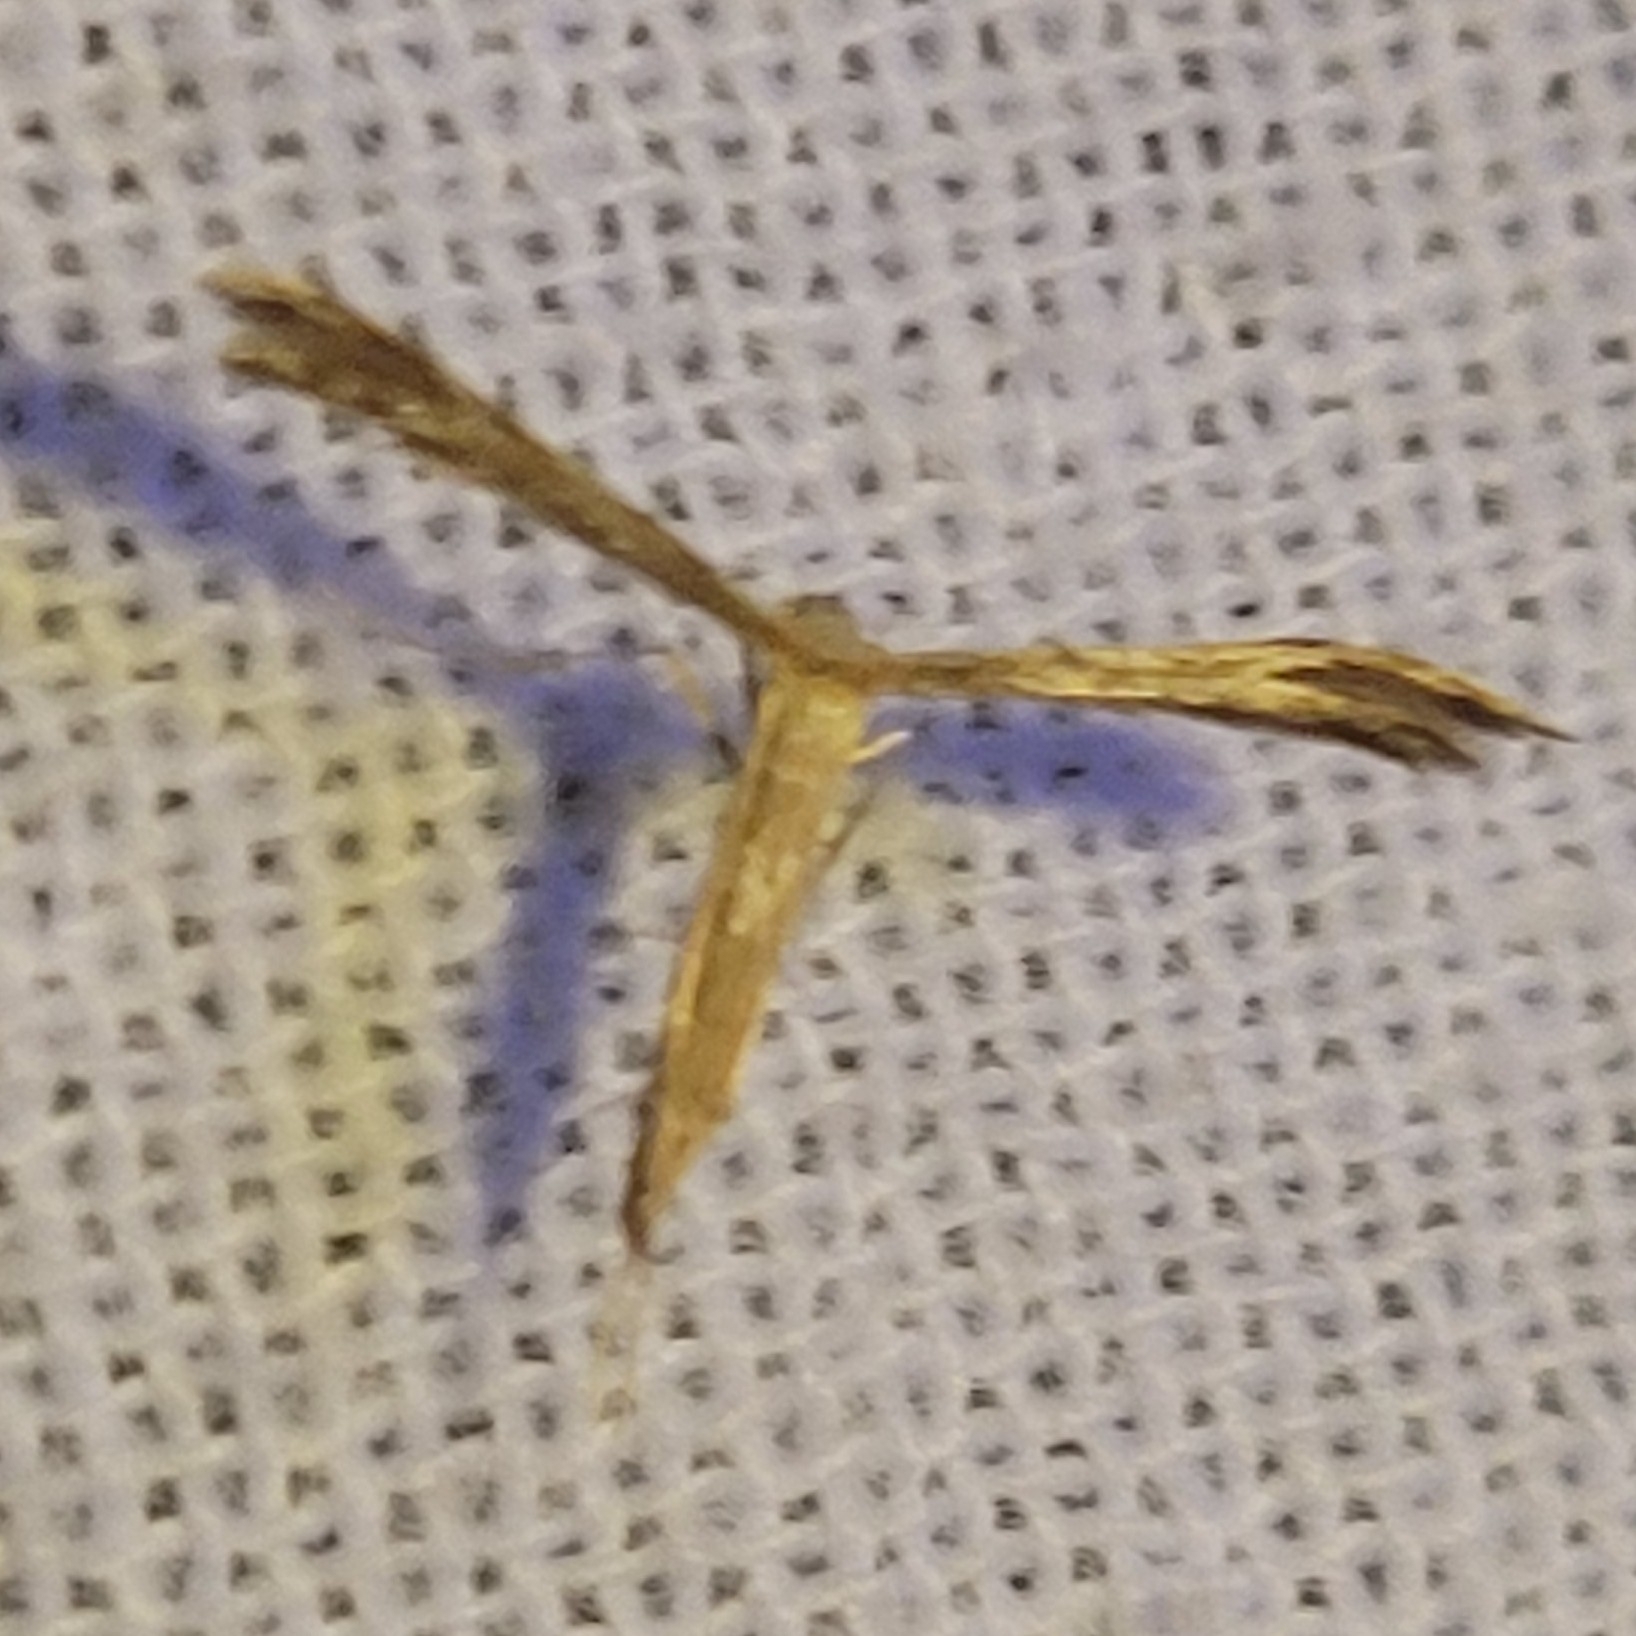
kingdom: Animalia
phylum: Arthropoda
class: Insecta
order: Lepidoptera
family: Pterophoridae
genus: Pselnophorus
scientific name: Pselnophorus belfragei
